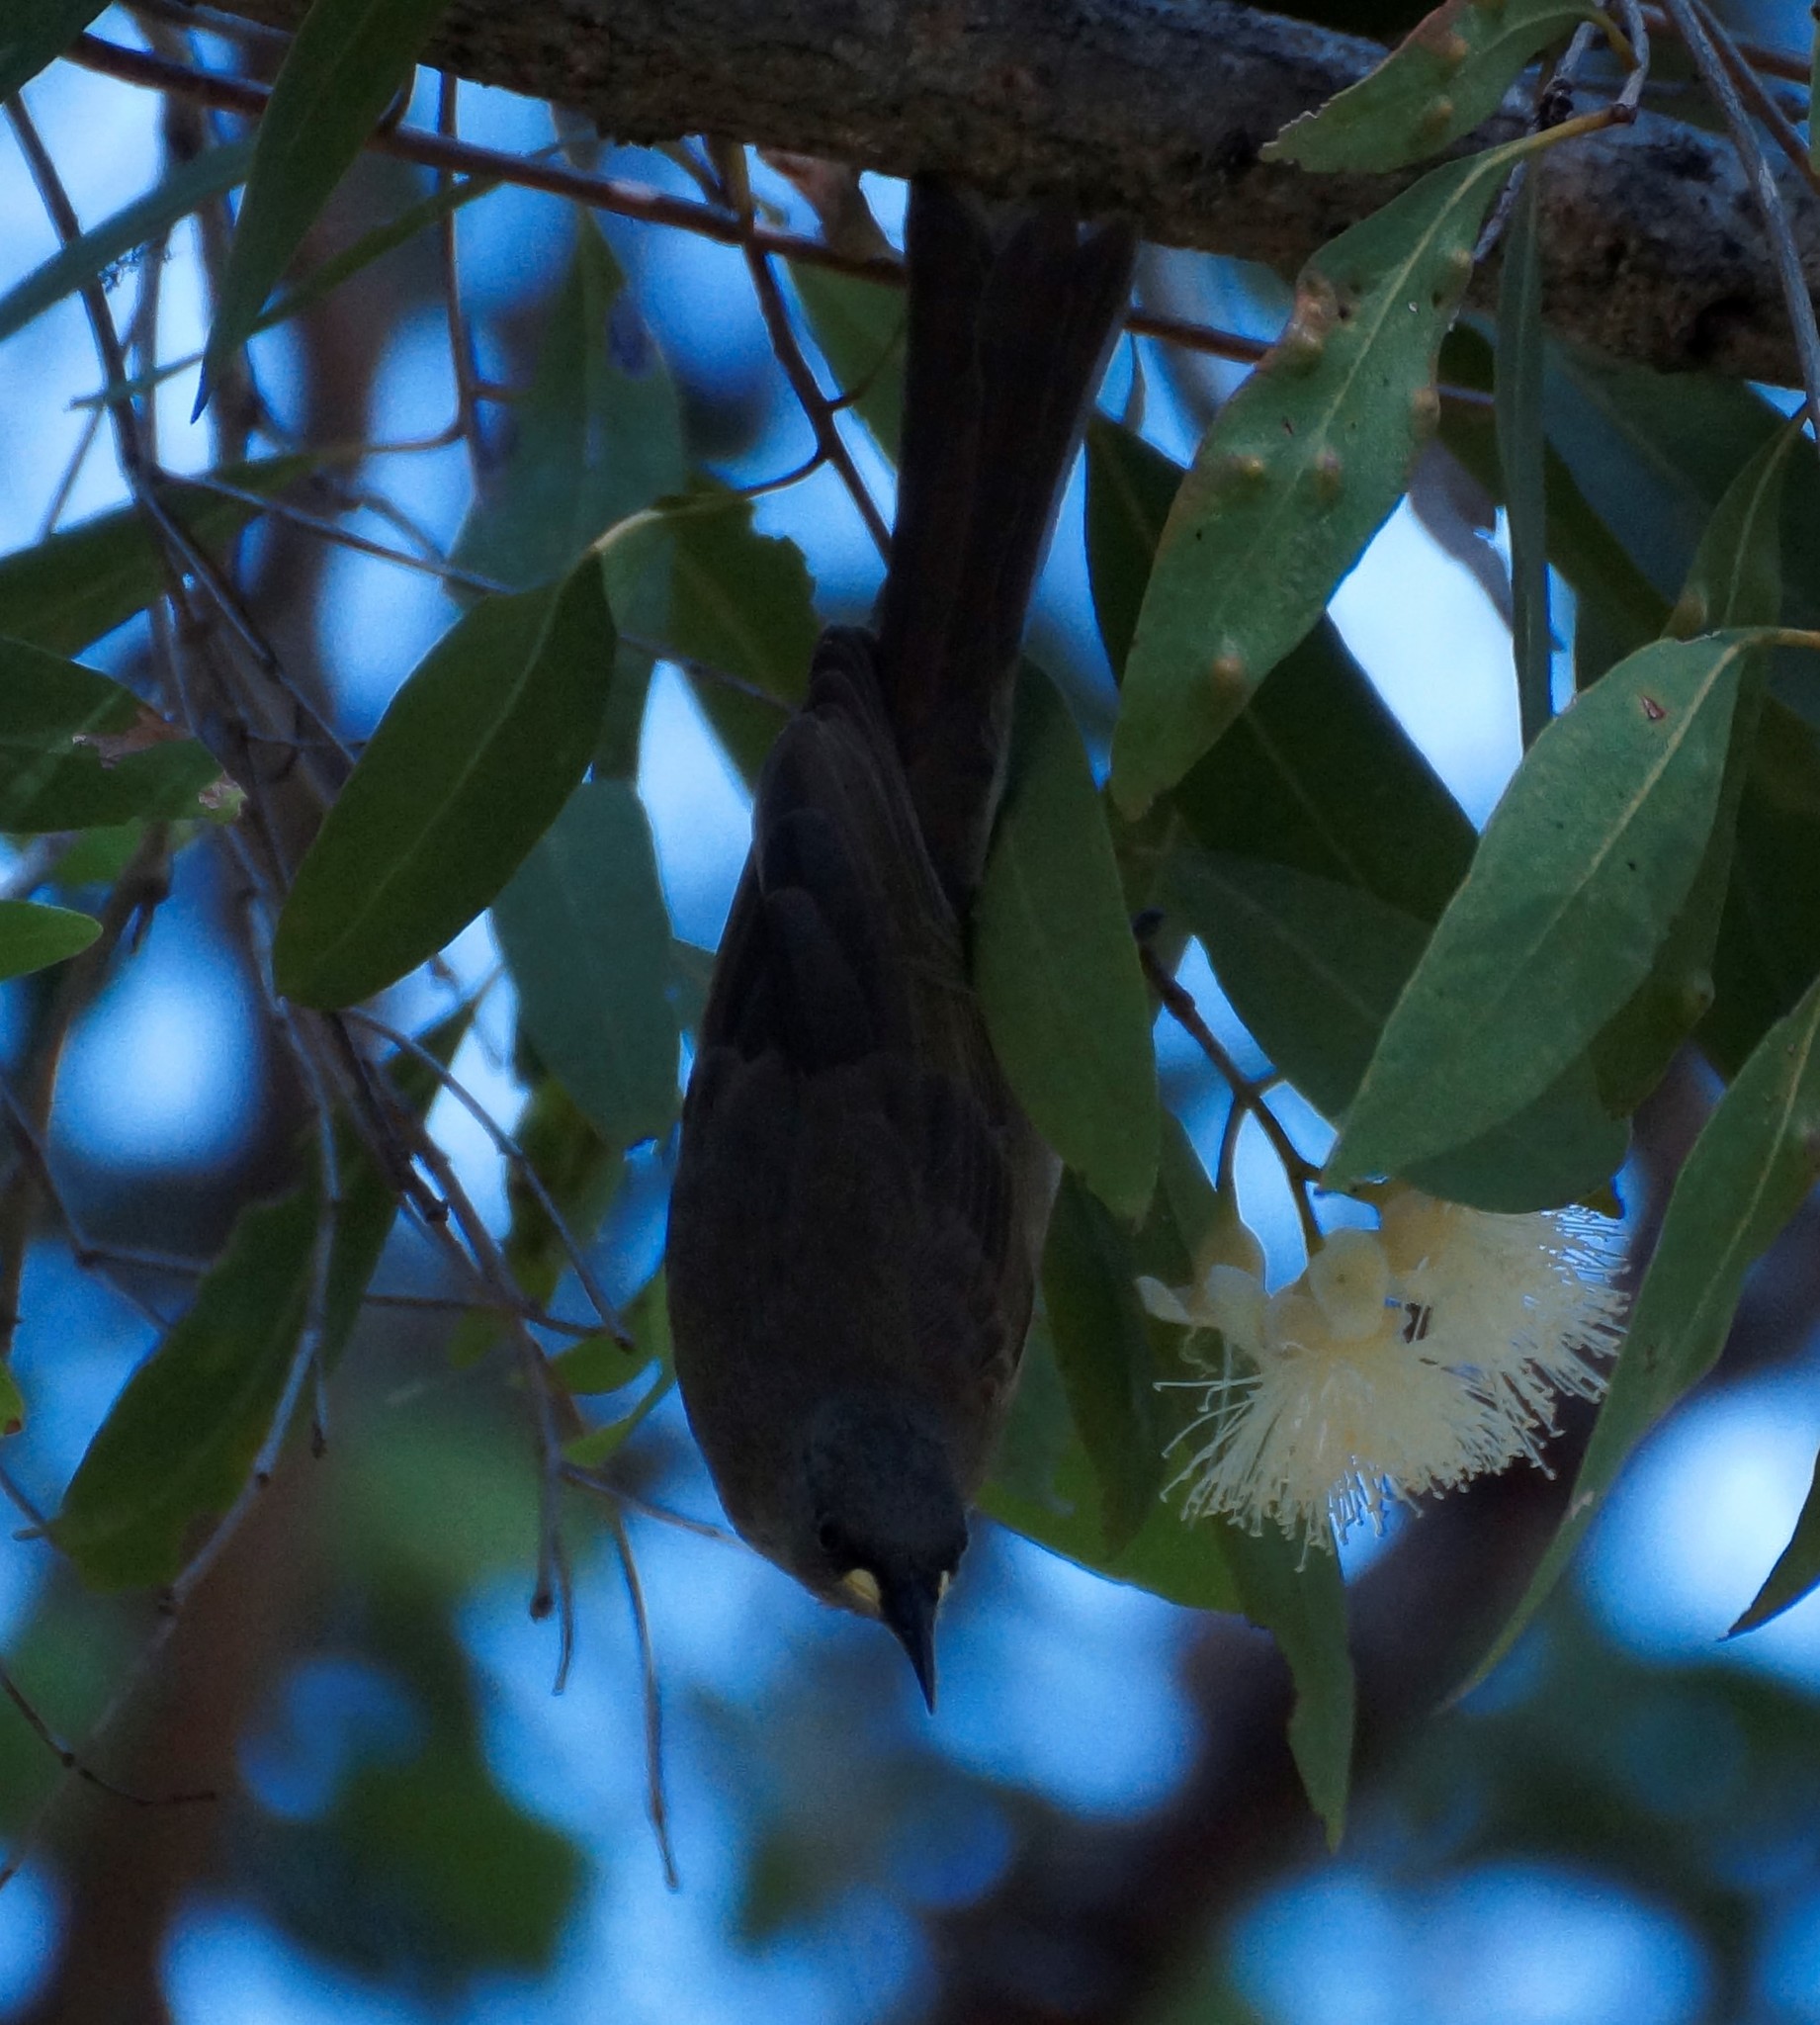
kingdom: Animalia
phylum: Chordata
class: Aves
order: Passeriformes
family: Meliphagidae
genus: Stomiopera
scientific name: Stomiopera unicolor
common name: White-gaped honeyeater
